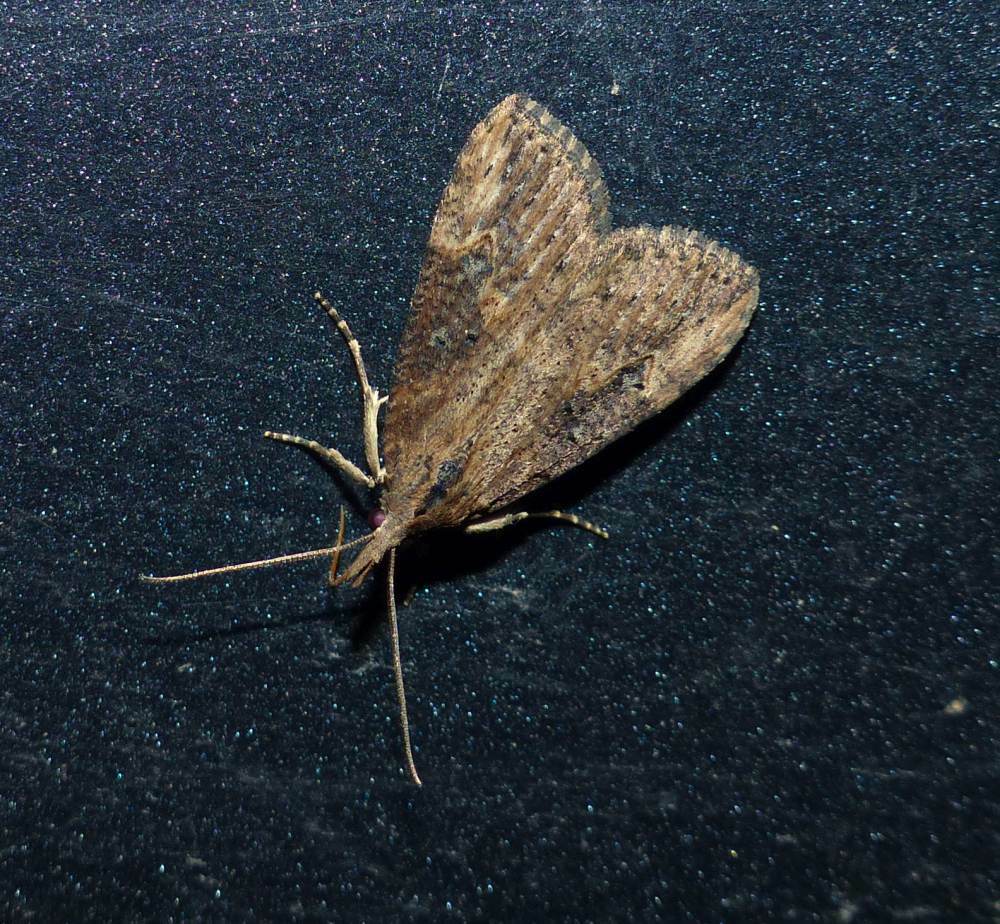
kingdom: Animalia
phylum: Arthropoda
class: Insecta
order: Lepidoptera
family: Erebidae
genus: Hypena
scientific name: Hypena humuli
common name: Hop vine snout
